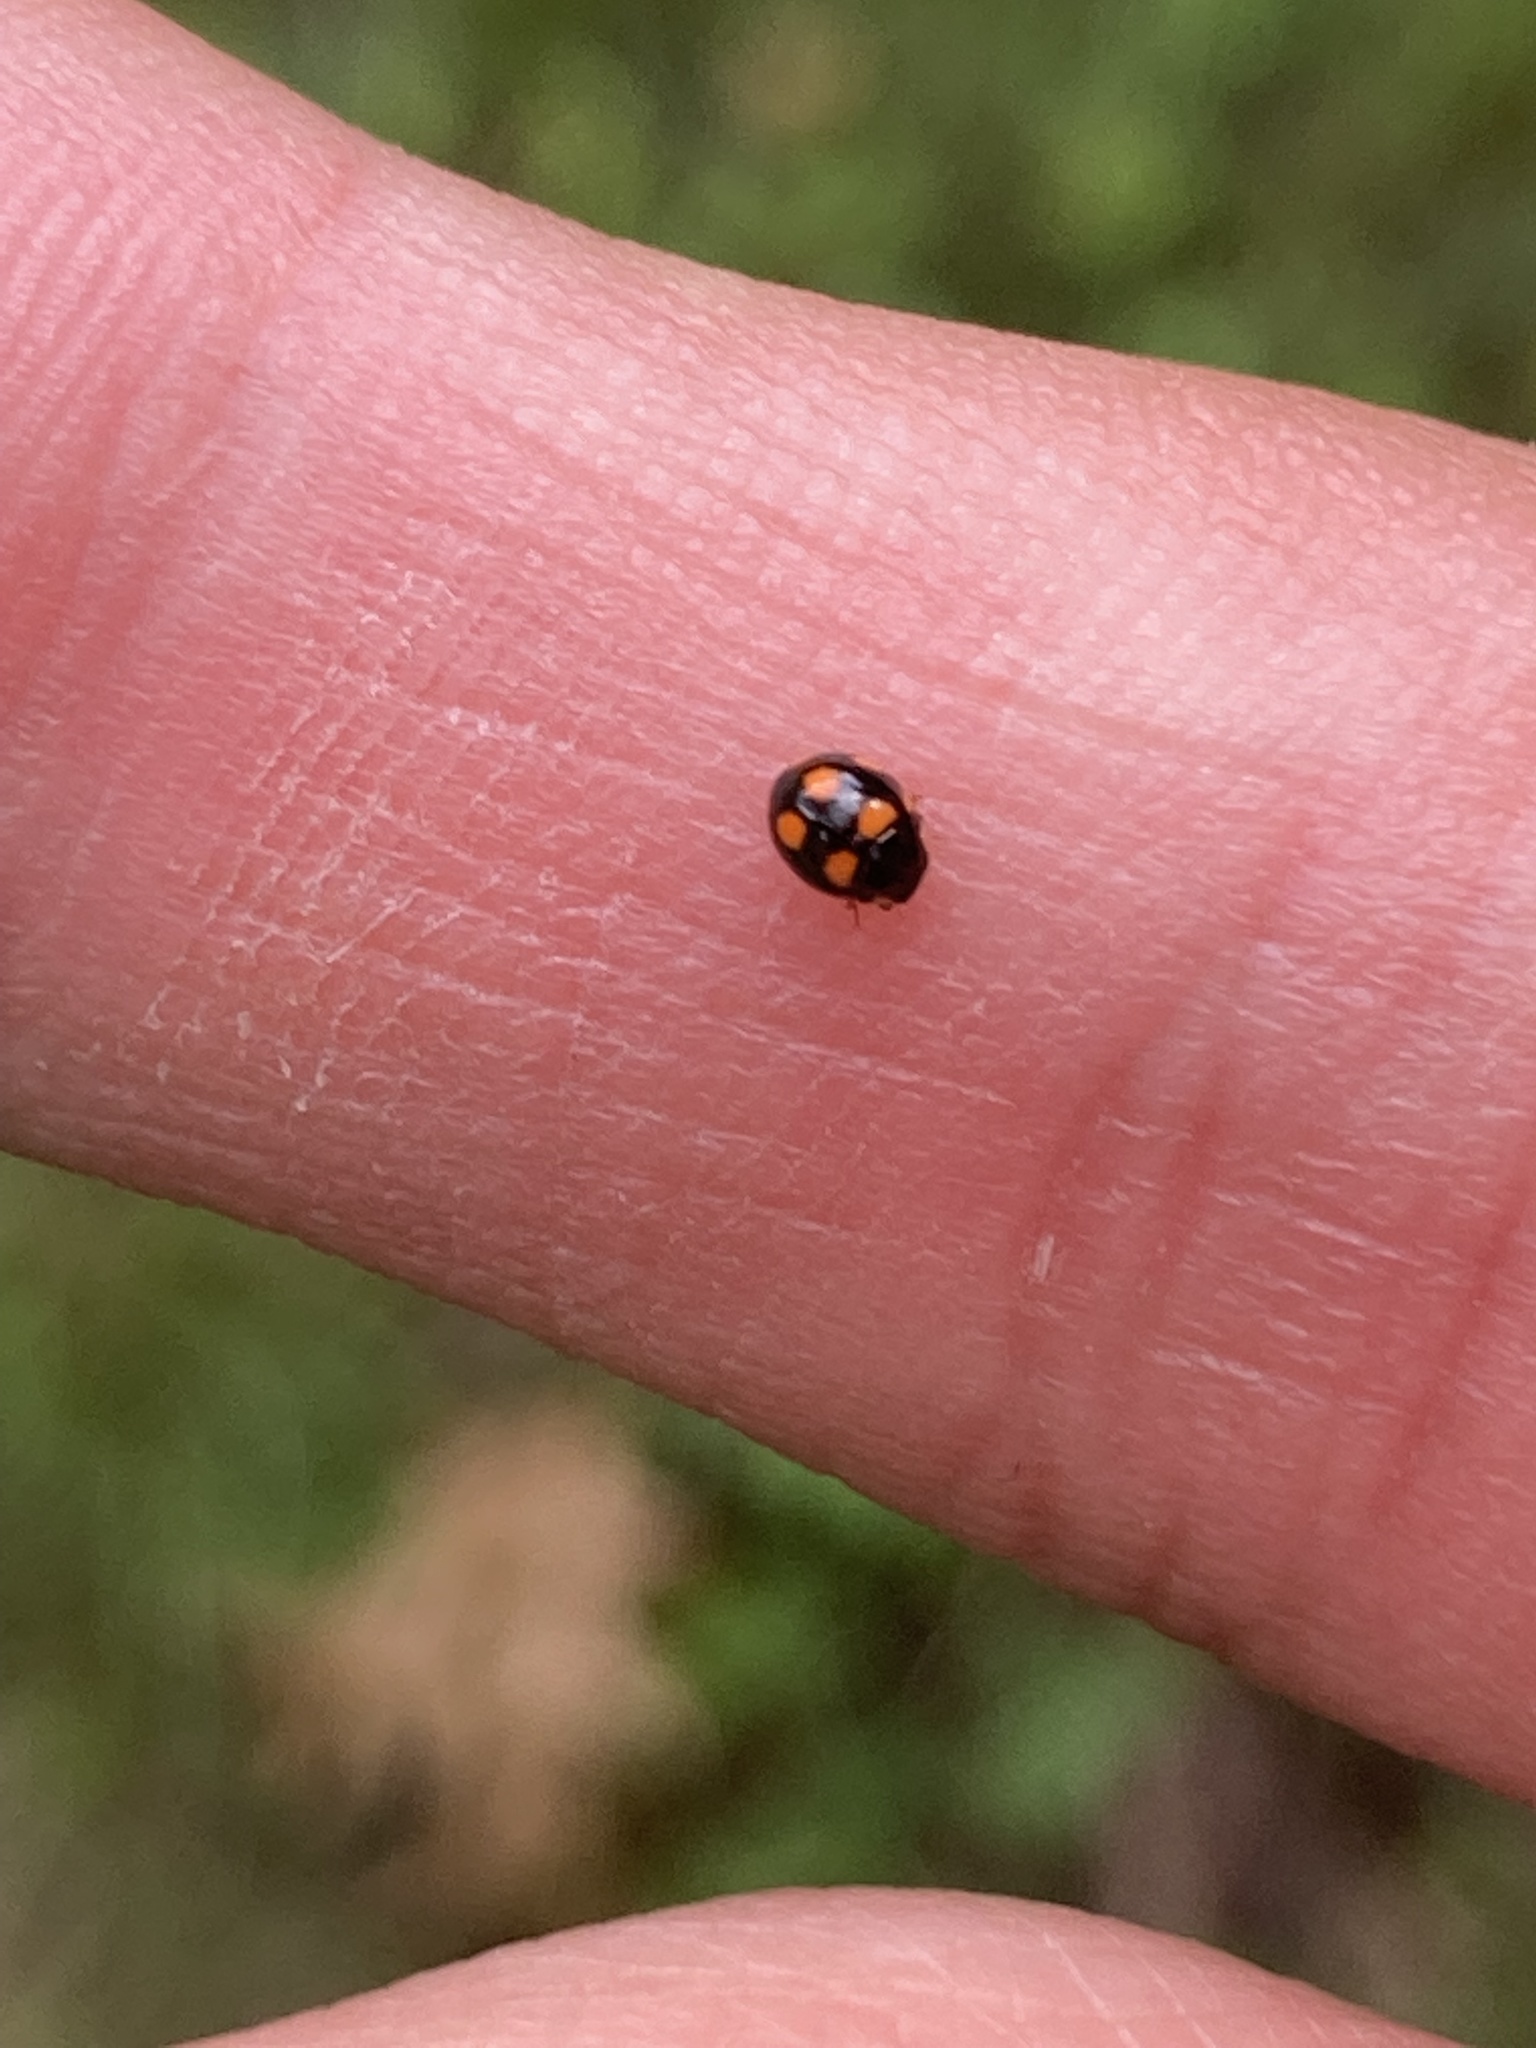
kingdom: Animalia
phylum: Arthropoda
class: Insecta
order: Coleoptera
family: Coccinellidae
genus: Brachiacantha
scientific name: Brachiacantha felina
